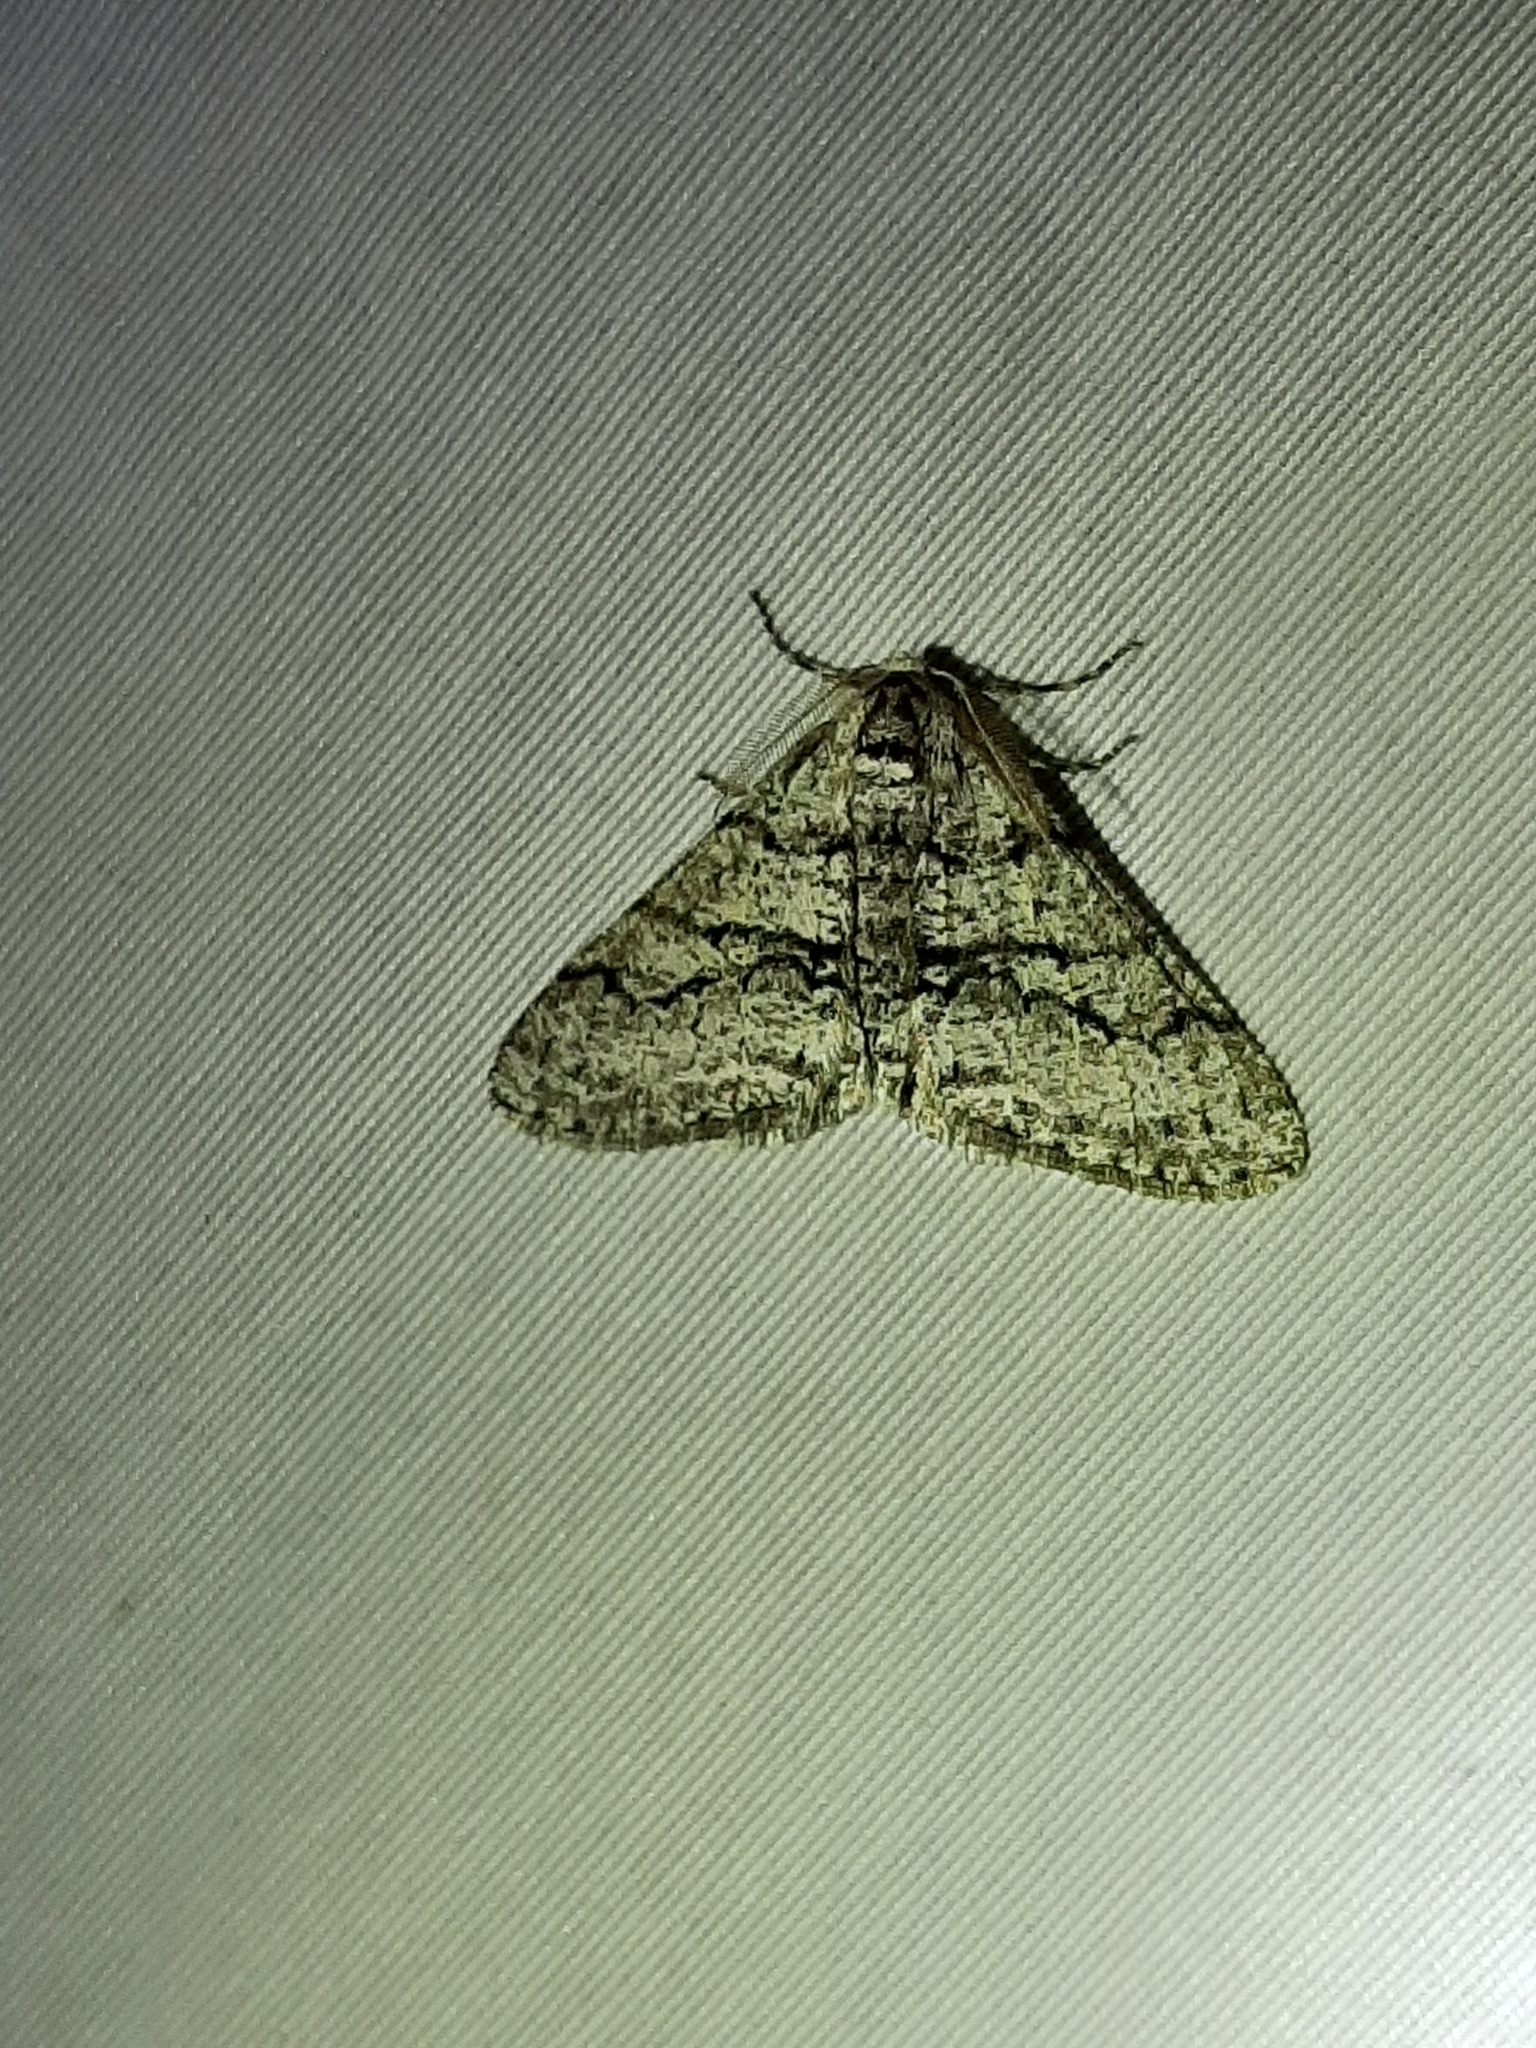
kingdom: Animalia
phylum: Arthropoda
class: Insecta
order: Lepidoptera
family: Geometridae
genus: Phigalia
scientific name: Phigalia titea
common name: Spiny looper
